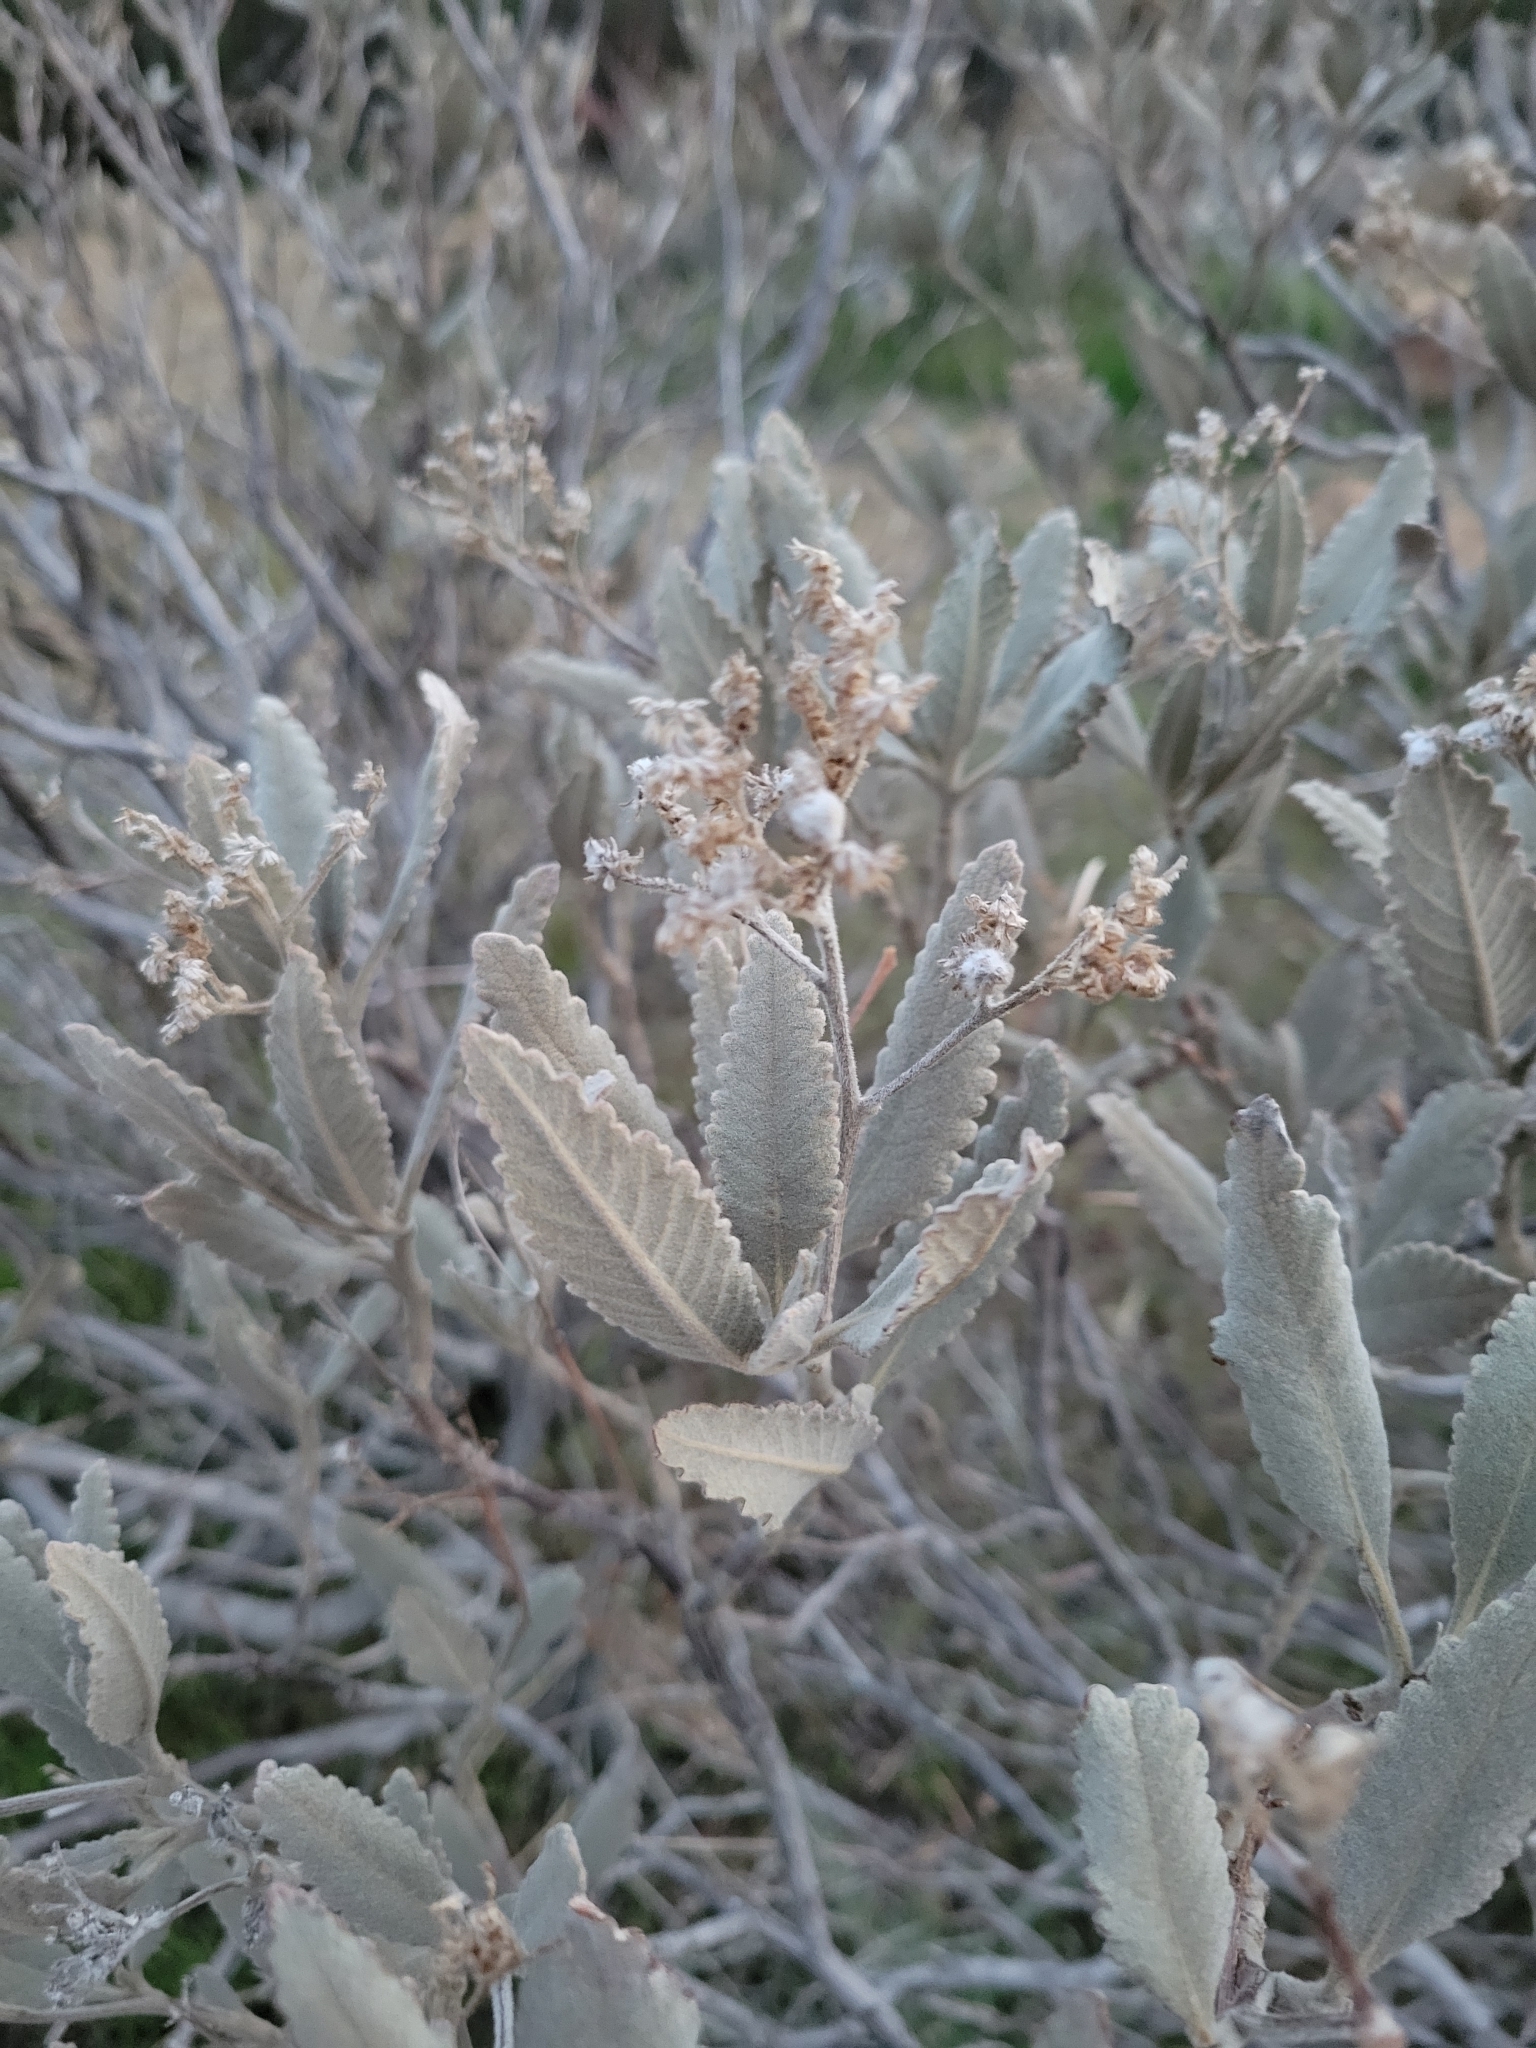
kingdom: Plantae
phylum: Tracheophyta
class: Magnoliopsida
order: Boraginales
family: Namaceae
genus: Eriodictyon
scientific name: Eriodictyon crassifolium
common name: Thick-leaf yerba-santa
